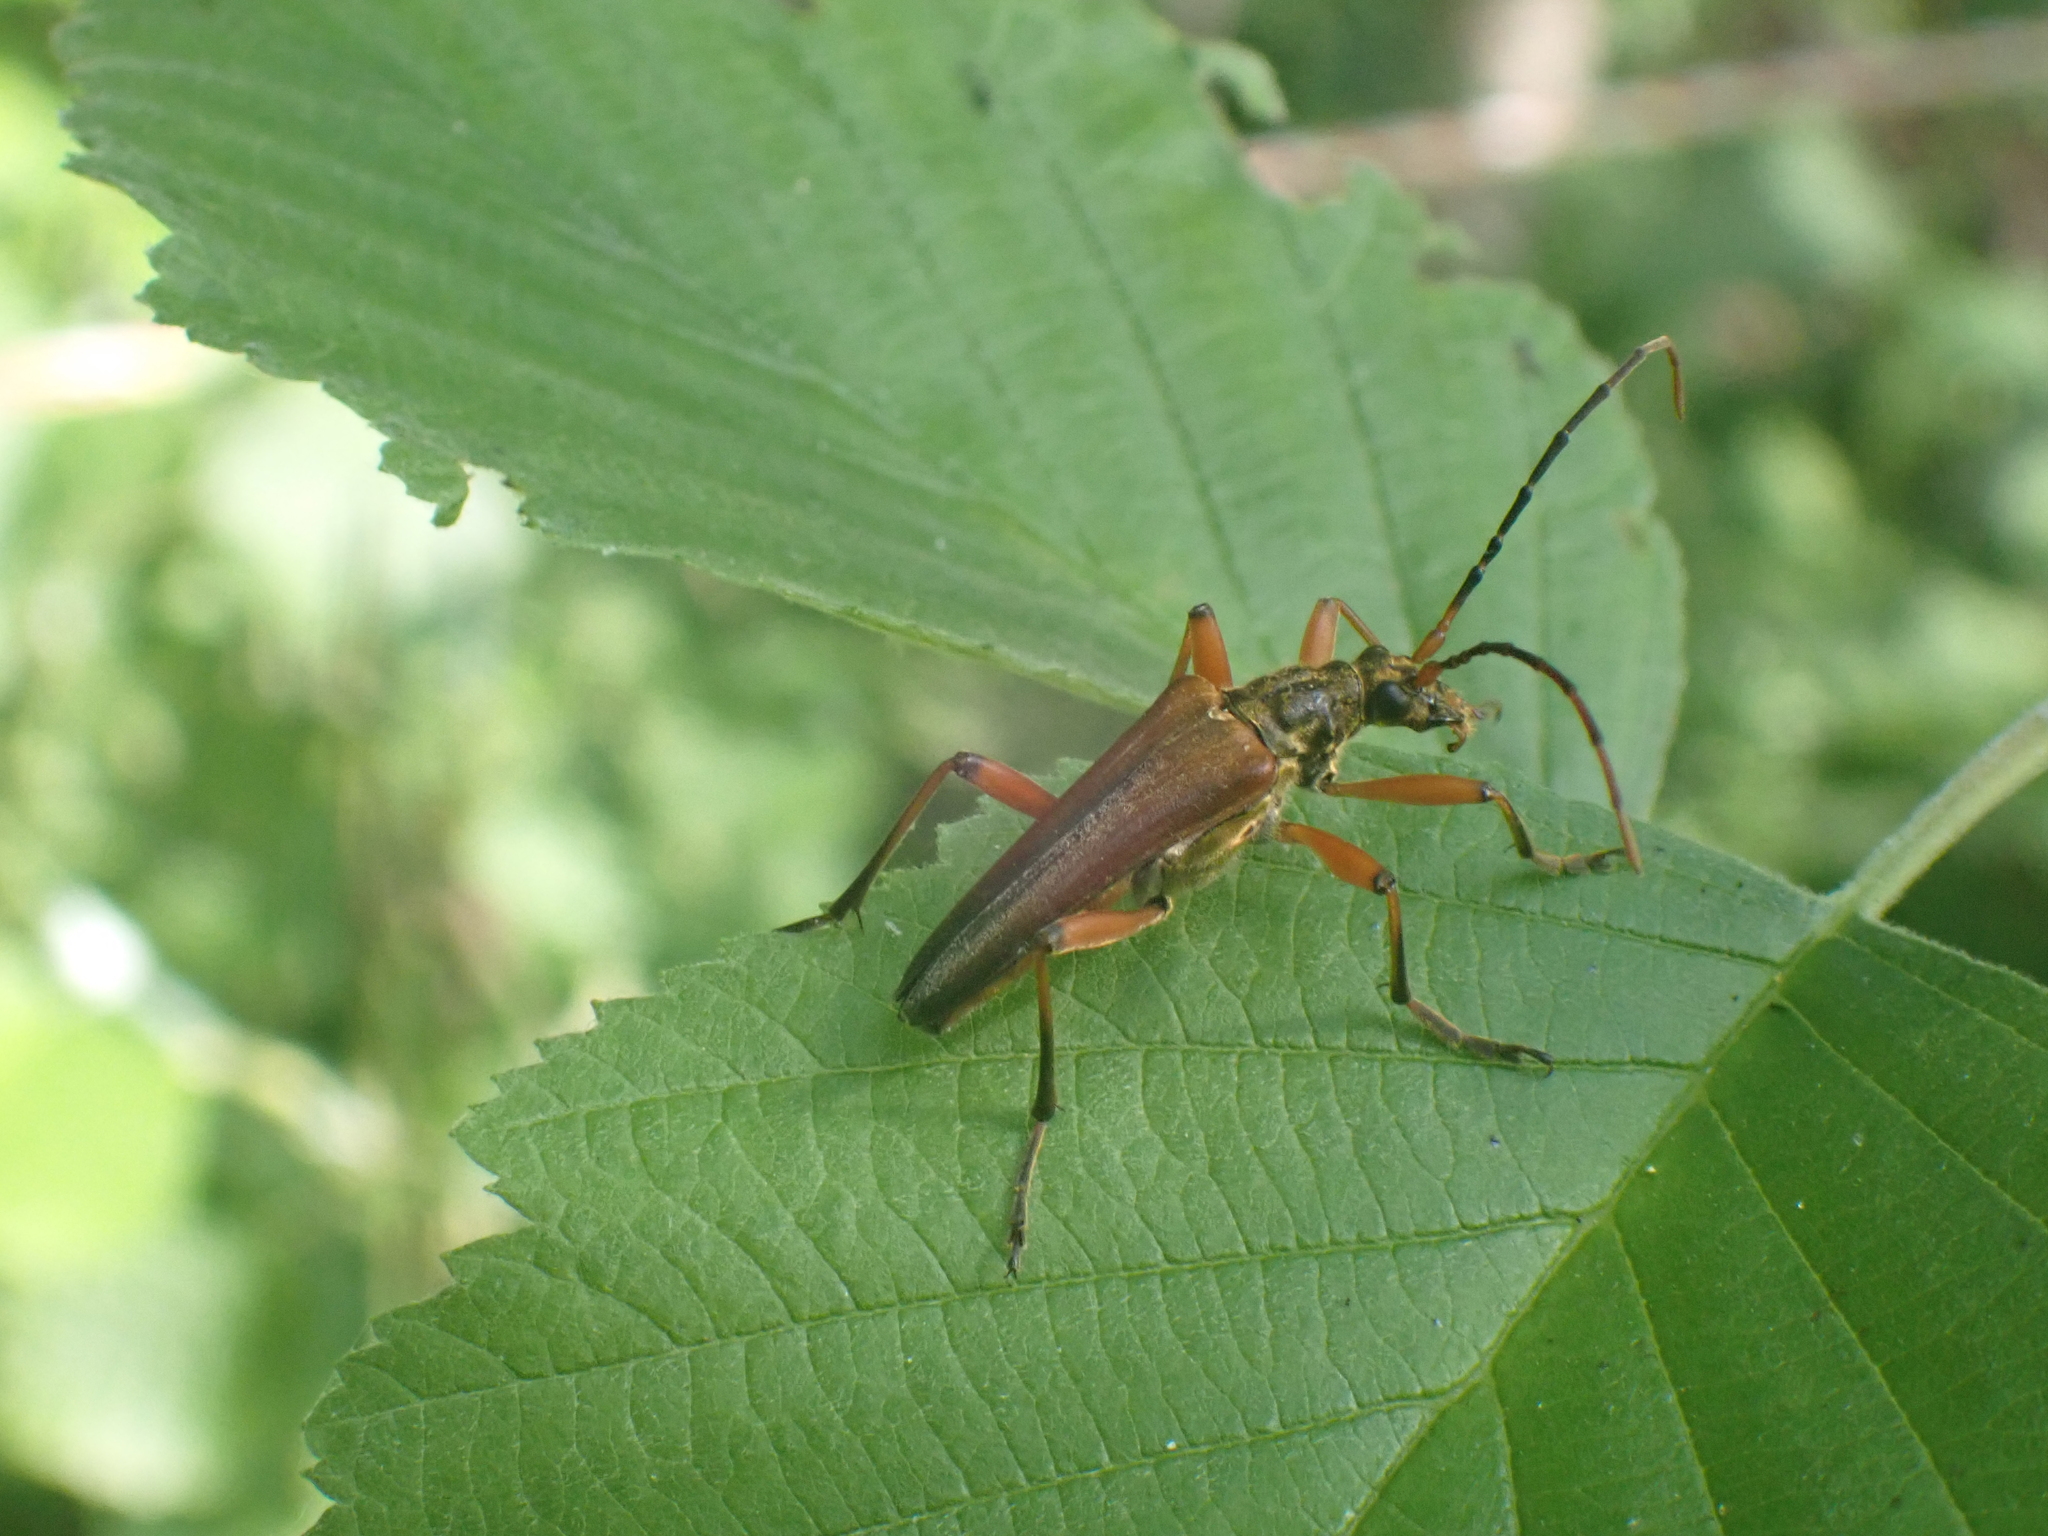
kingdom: Animalia
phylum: Arthropoda
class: Insecta
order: Coleoptera
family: Cerambycidae
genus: Stenocorus
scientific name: Stenocorus meridianus
